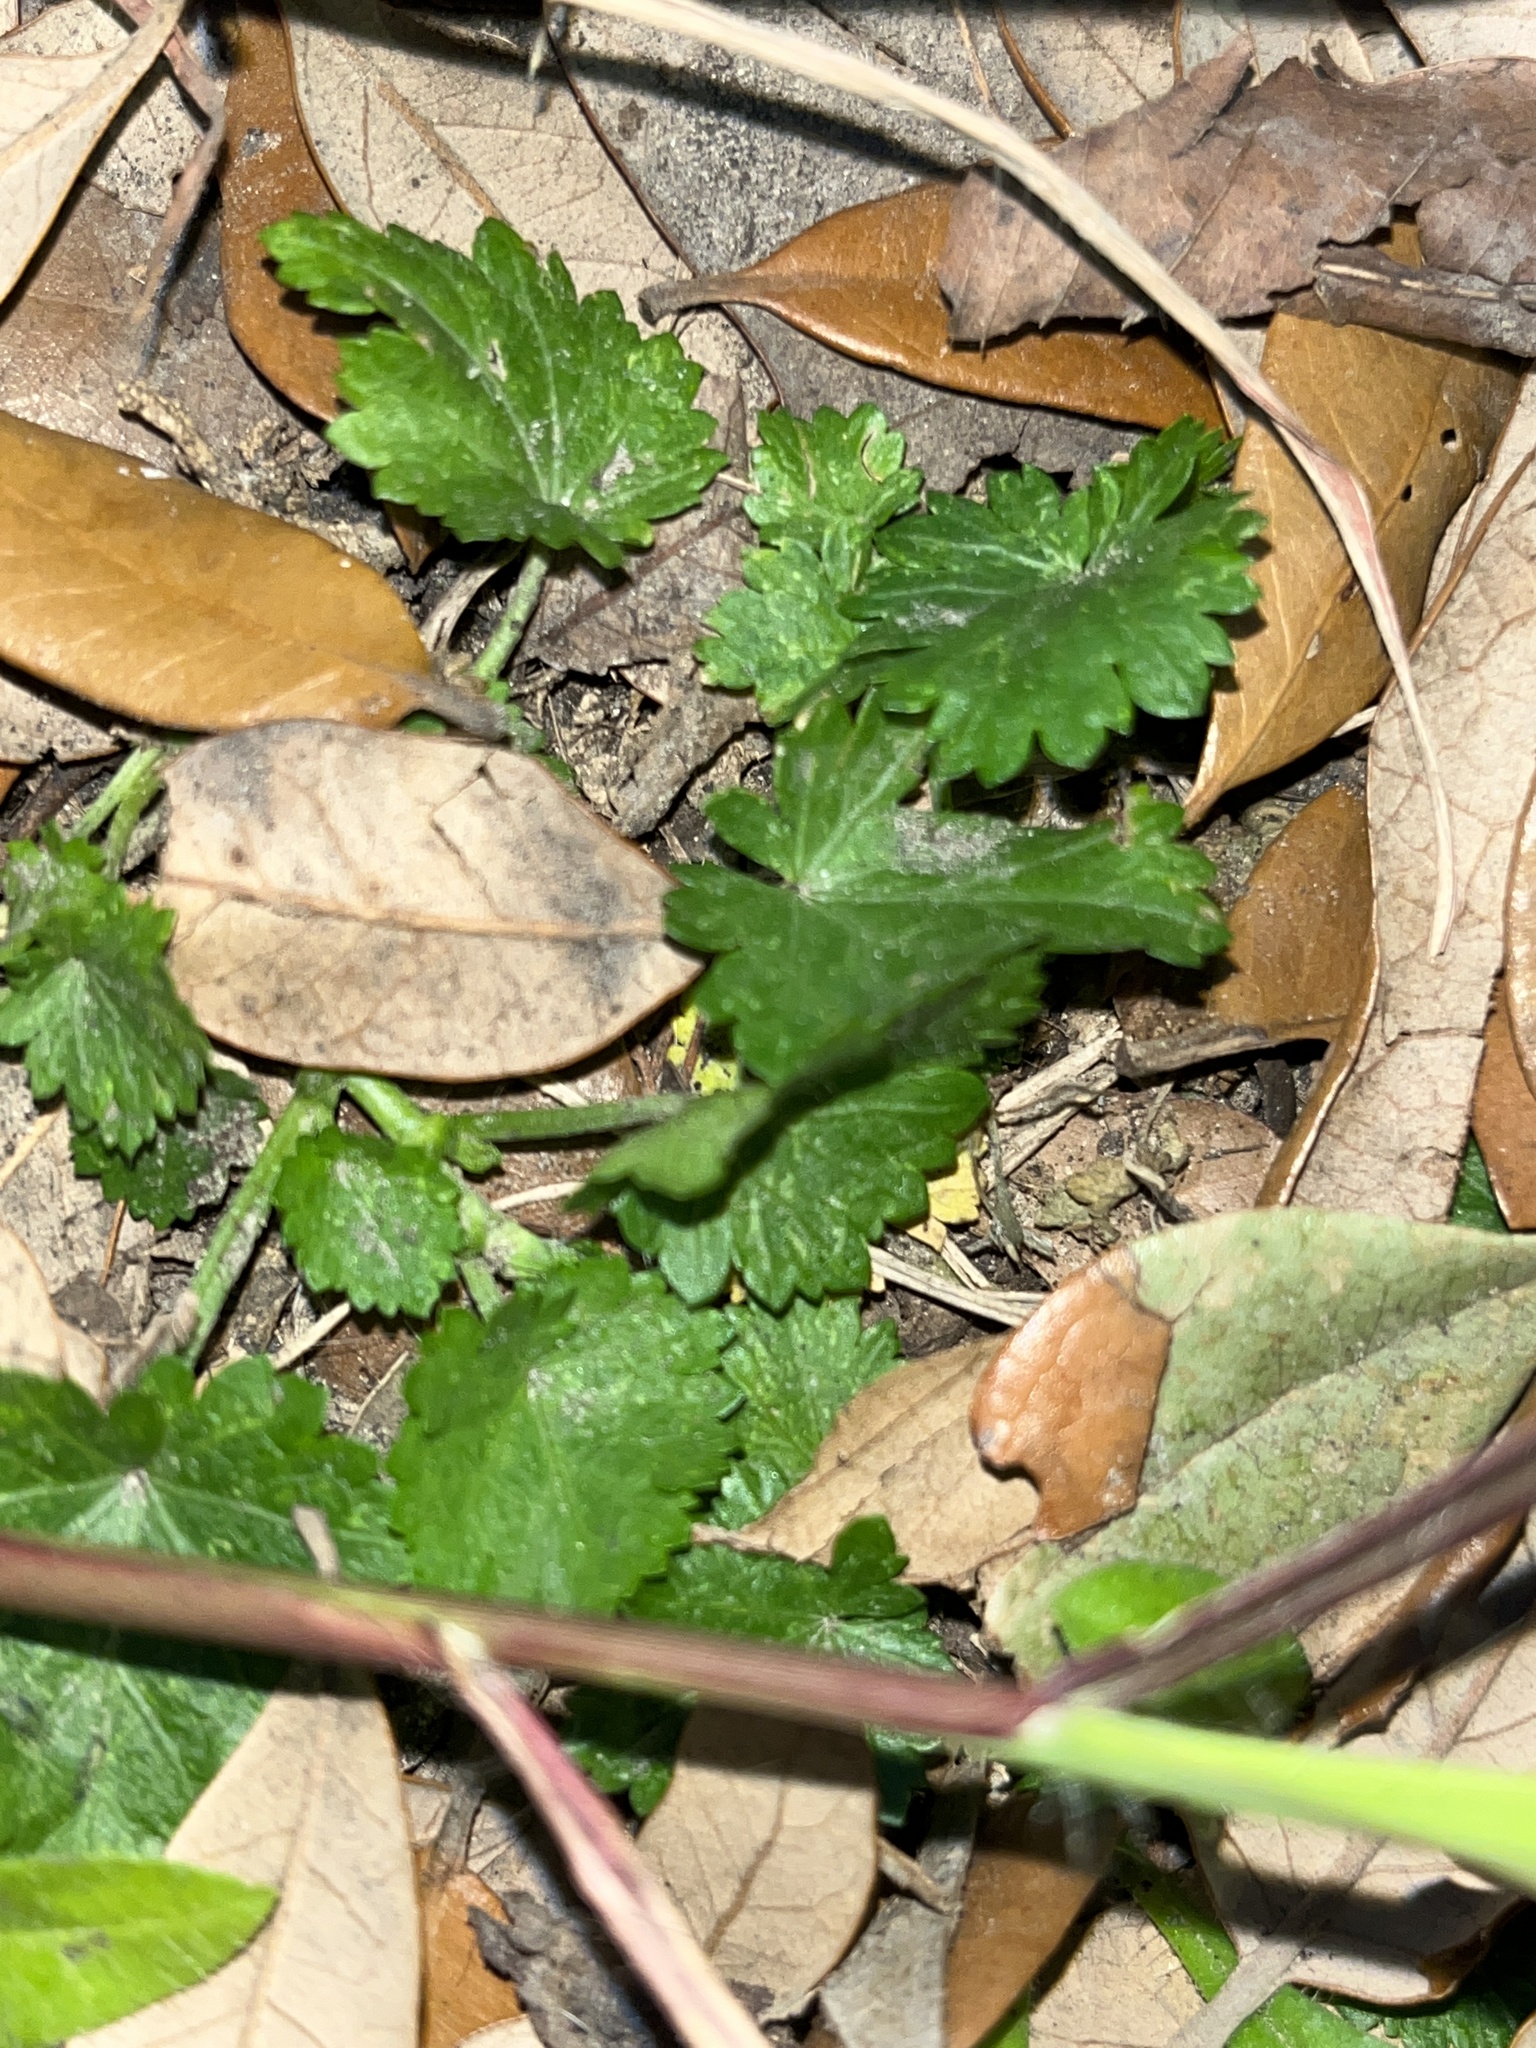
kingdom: Plantae
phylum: Tracheophyta
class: Magnoliopsida
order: Malvales
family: Malvaceae
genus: Modiola
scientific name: Modiola caroliniana
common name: Carolina bristlemallow
